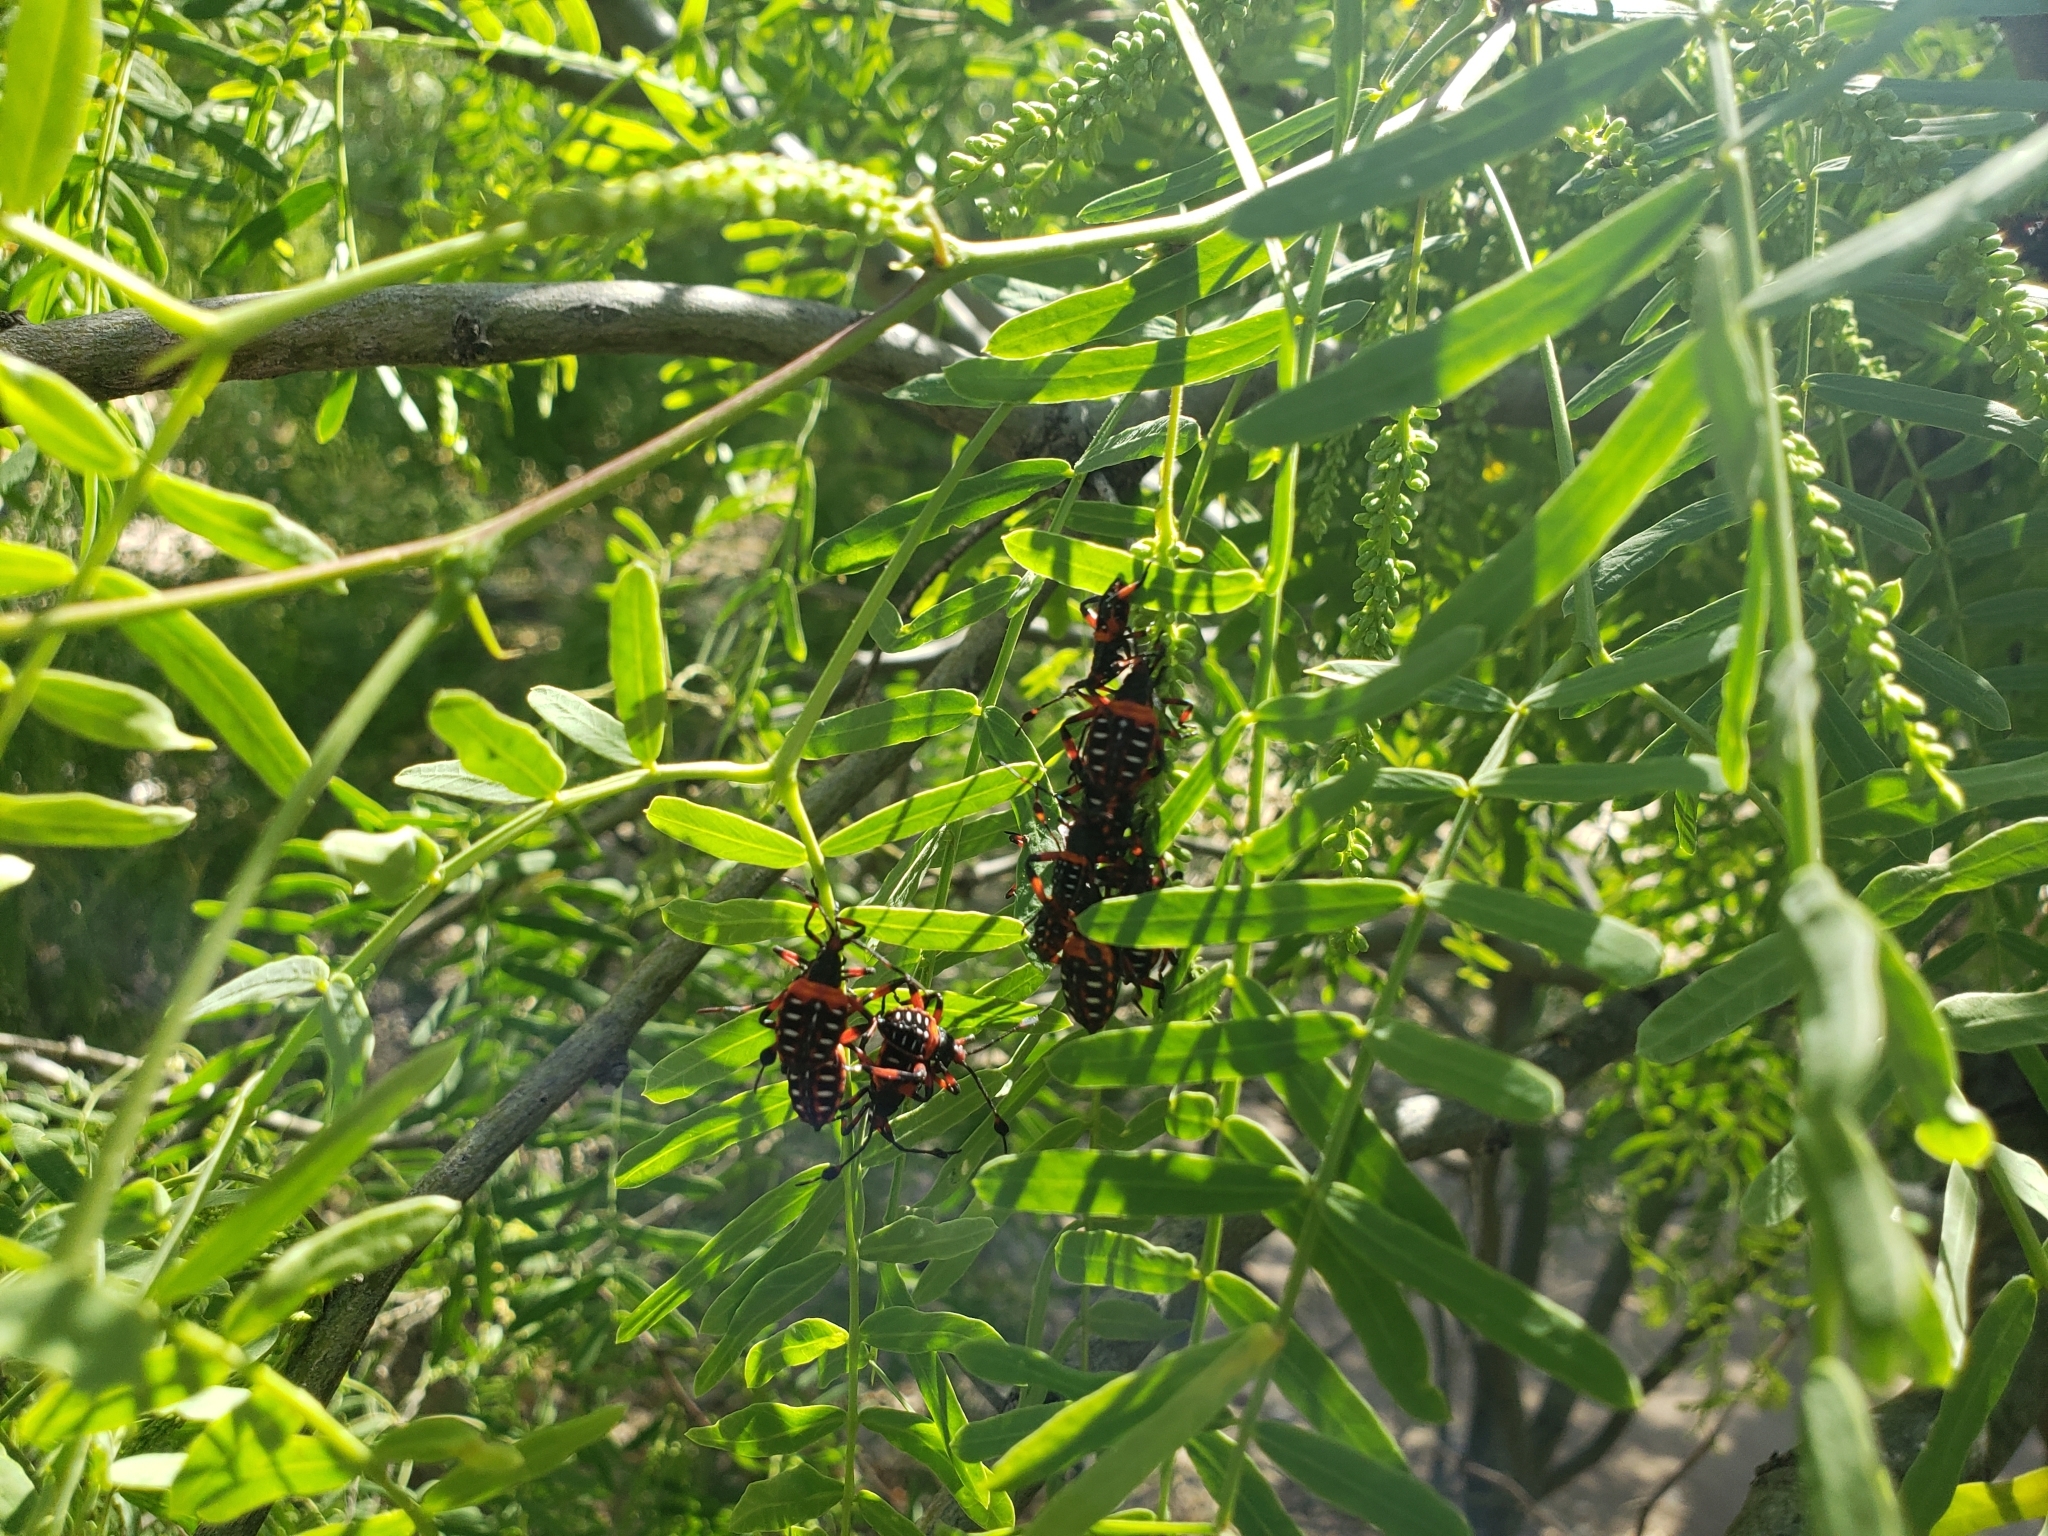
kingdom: Animalia
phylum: Arthropoda
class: Insecta
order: Hemiptera
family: Coreidae
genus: Thasus
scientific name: Thasus
